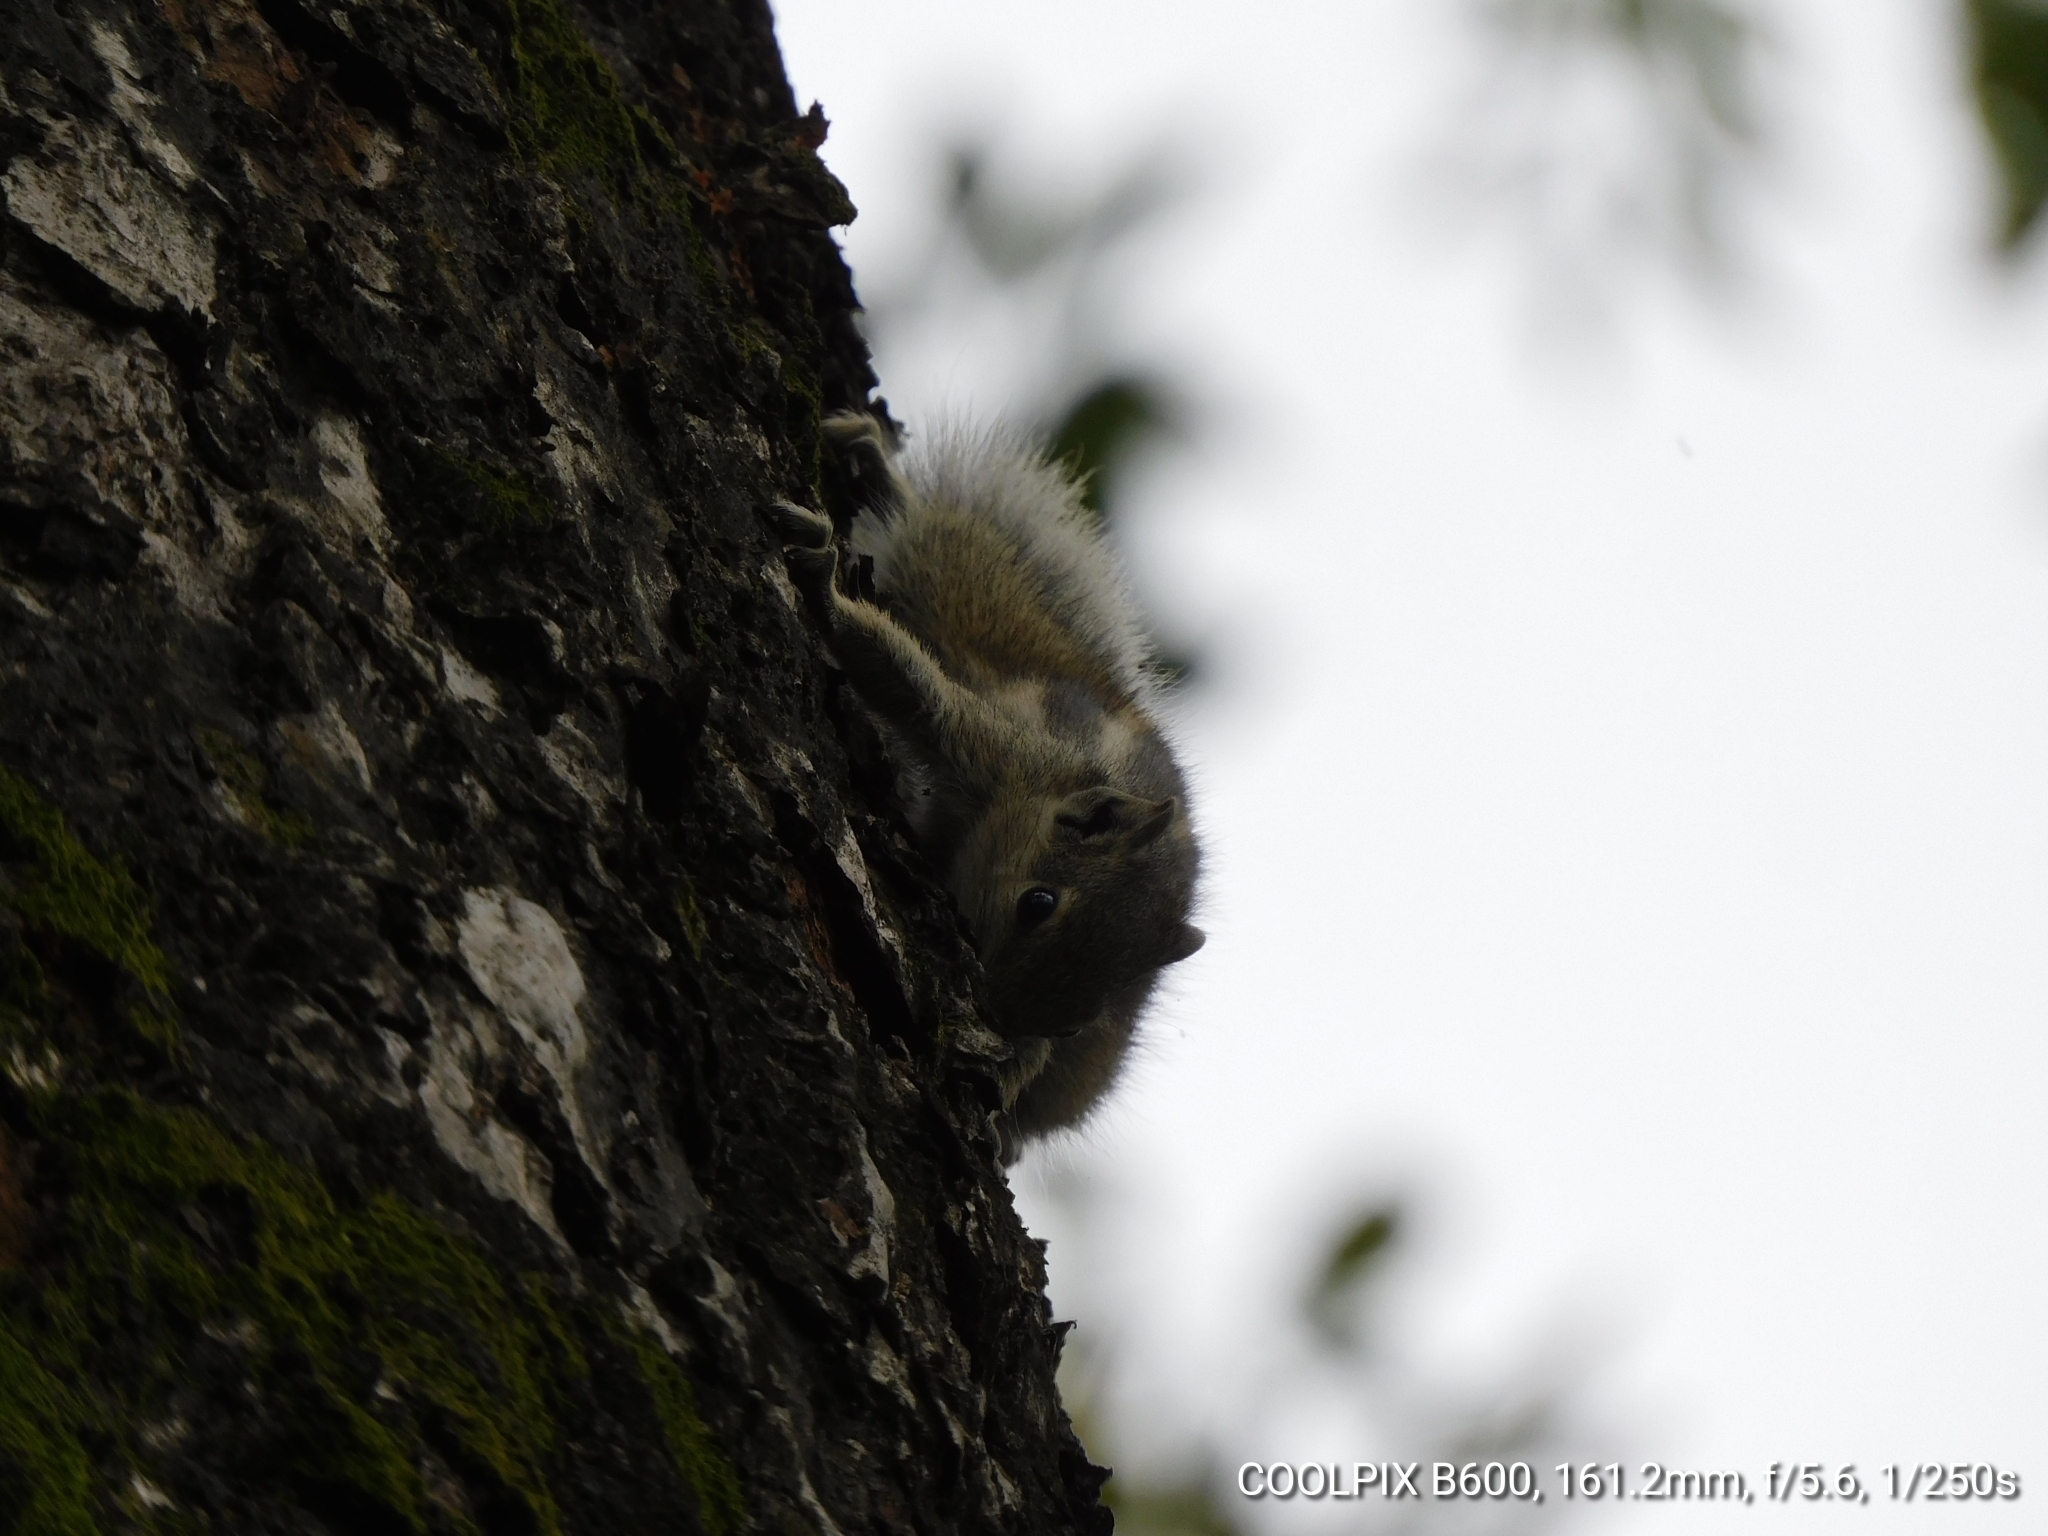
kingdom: Animalia
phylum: Chordata
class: Mammalia
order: Rodentia
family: Sciuridae
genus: Funambulus
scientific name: Funambulus pennantii
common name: Northern palm squirrel
